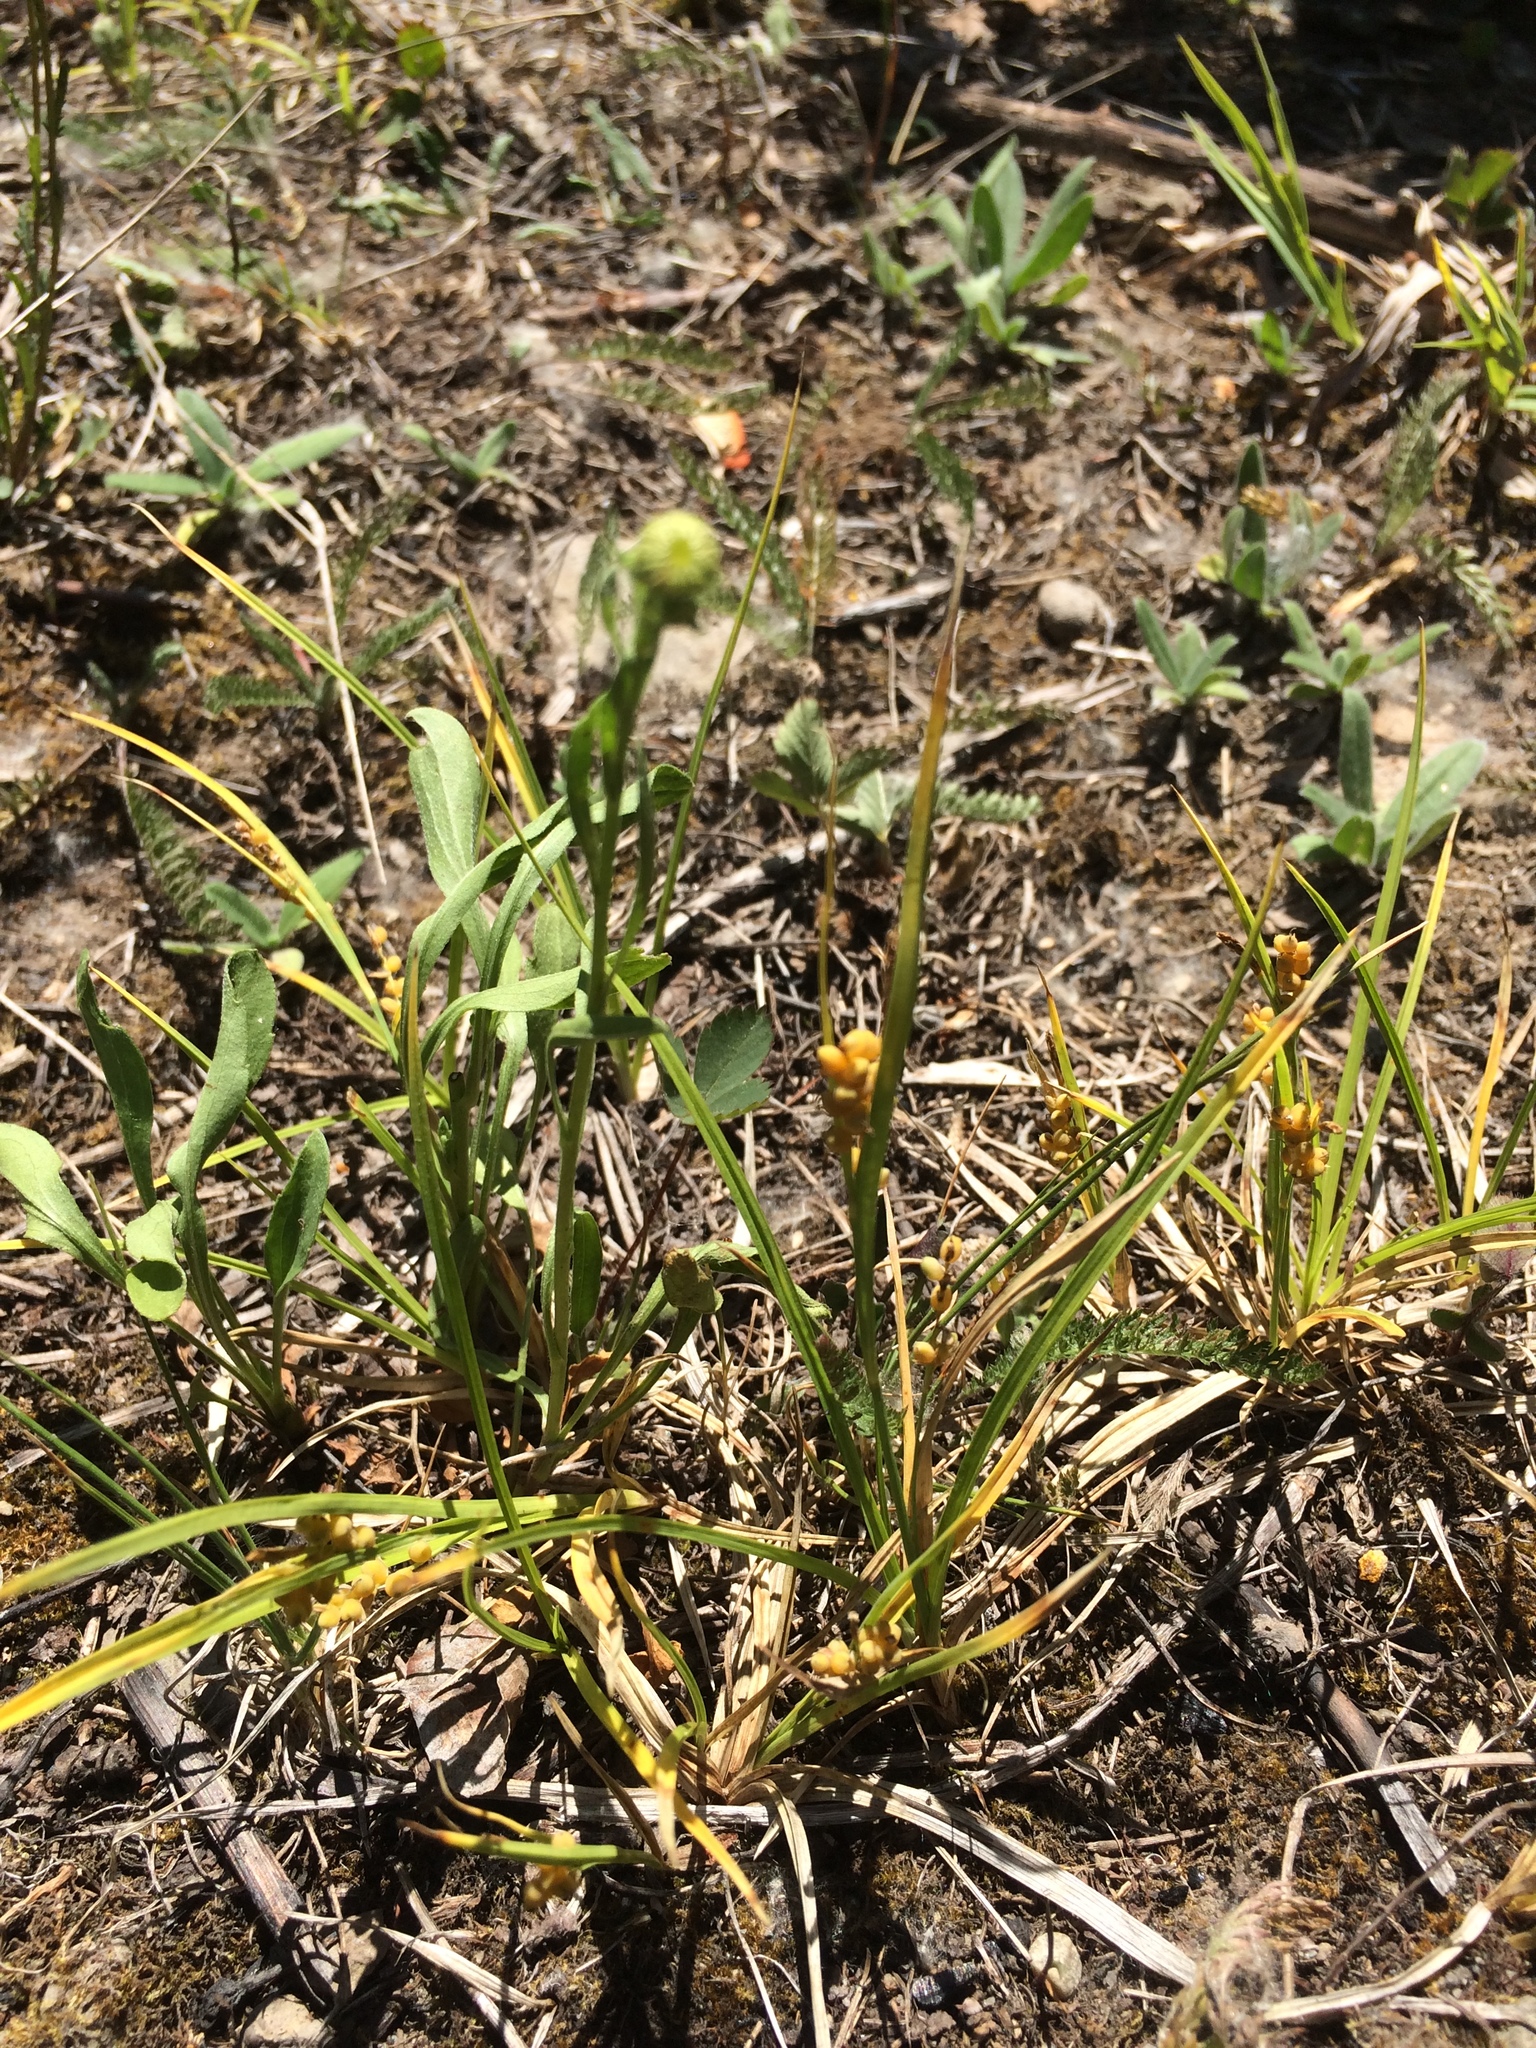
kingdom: Plantae
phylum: Tracheophyta
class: Liliopsida
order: Poales
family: Cyperaceae
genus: Carex
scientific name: Carex aurea
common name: Golden sedge
